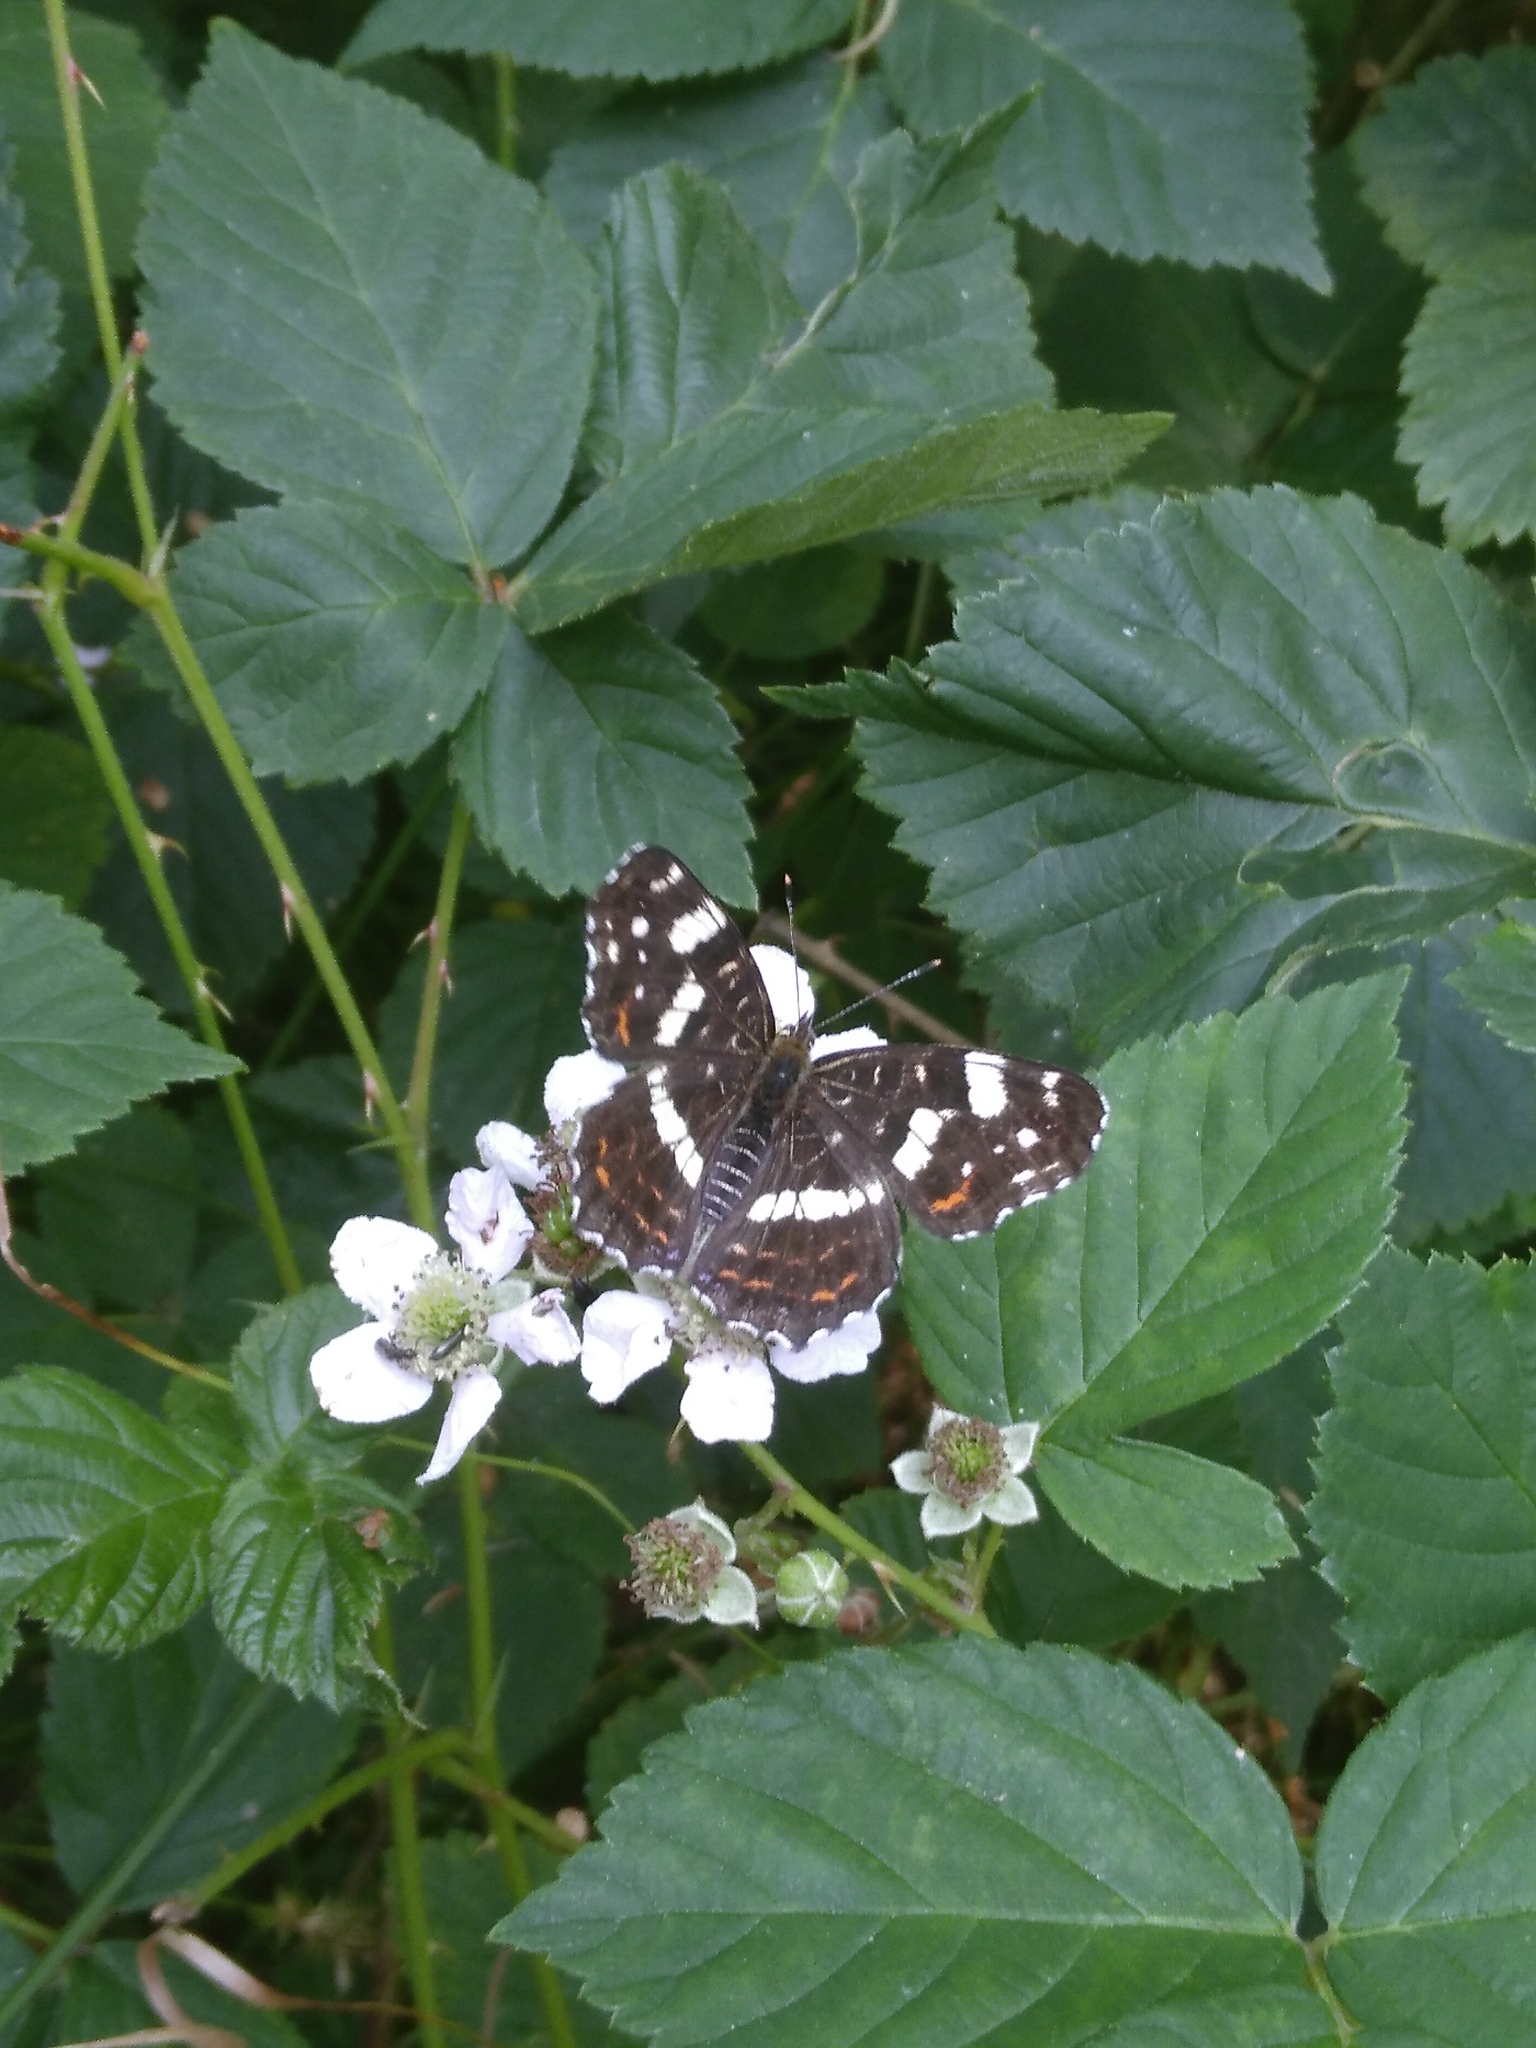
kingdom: Animalia
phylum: Arthropoda
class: Insecta
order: Lepidoptera
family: Nymphalidae
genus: Araschnia
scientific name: Araschnia levana
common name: Map butterfly
